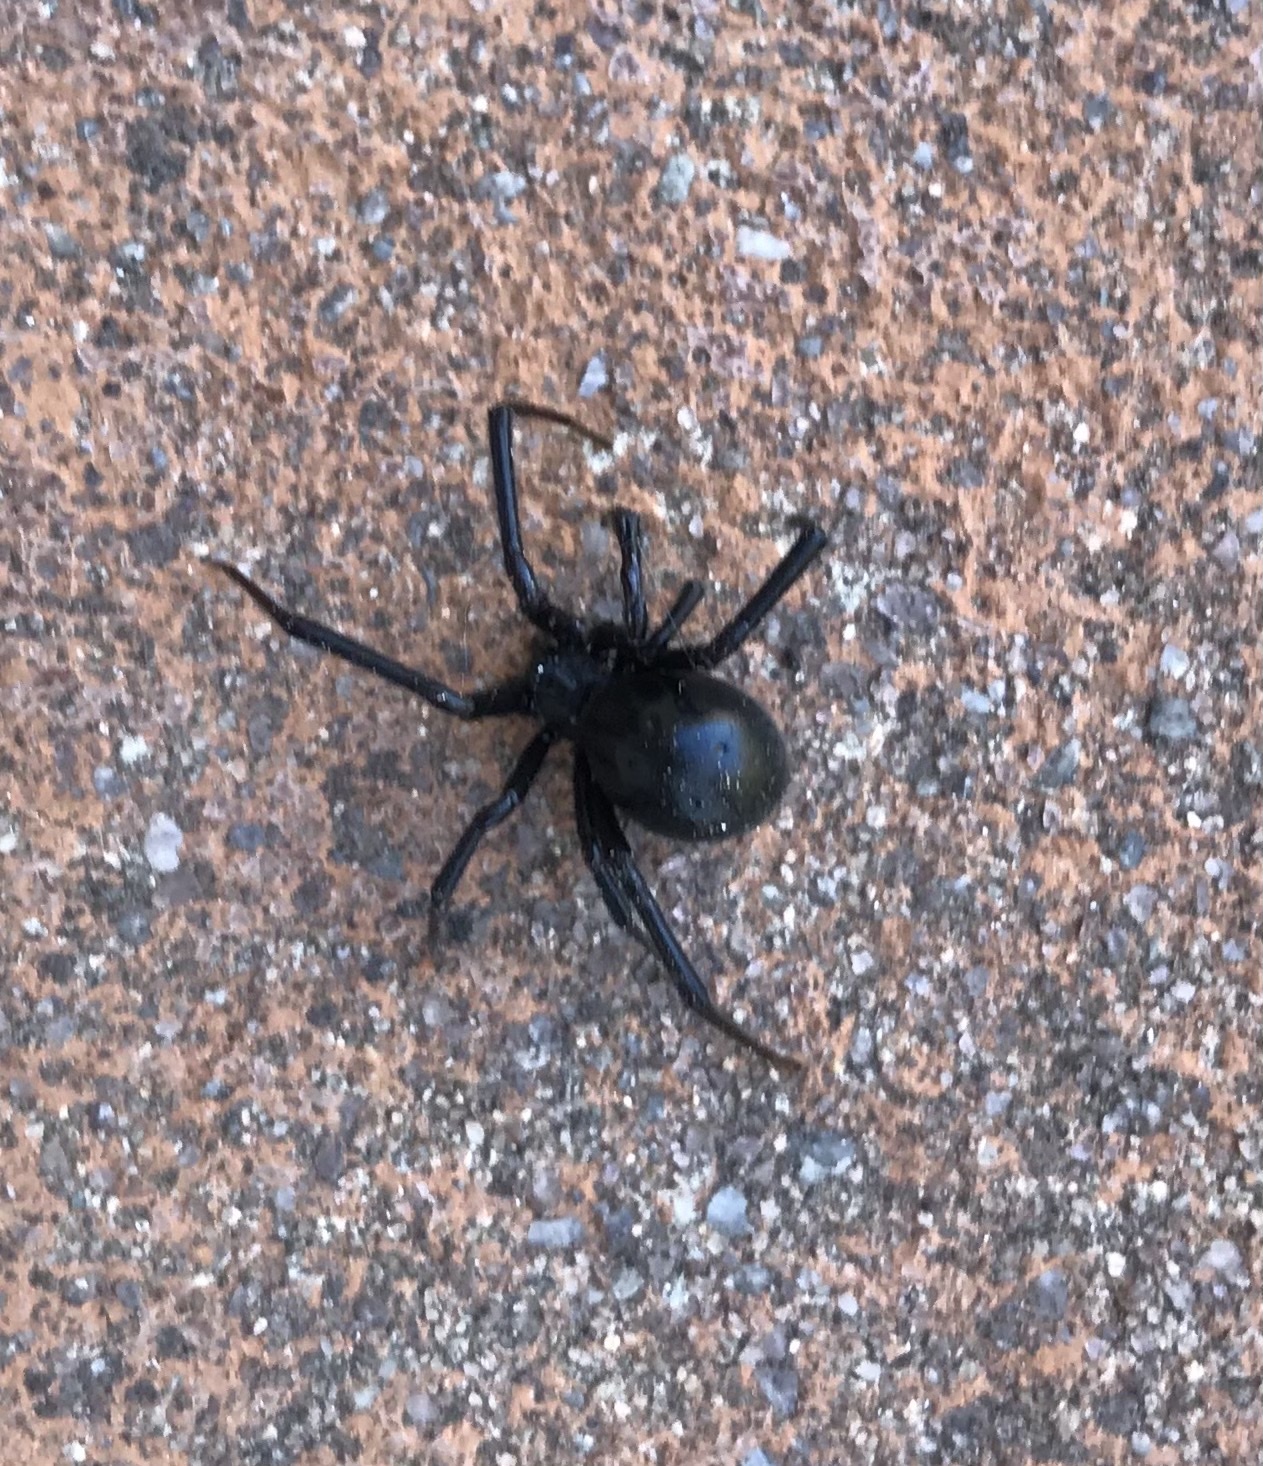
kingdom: Animalia
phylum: Arthropoda
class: Arachnida
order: Araneae
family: Theridiidae
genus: Latrodectus
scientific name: Latrodectus hesperus
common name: Western black widow
